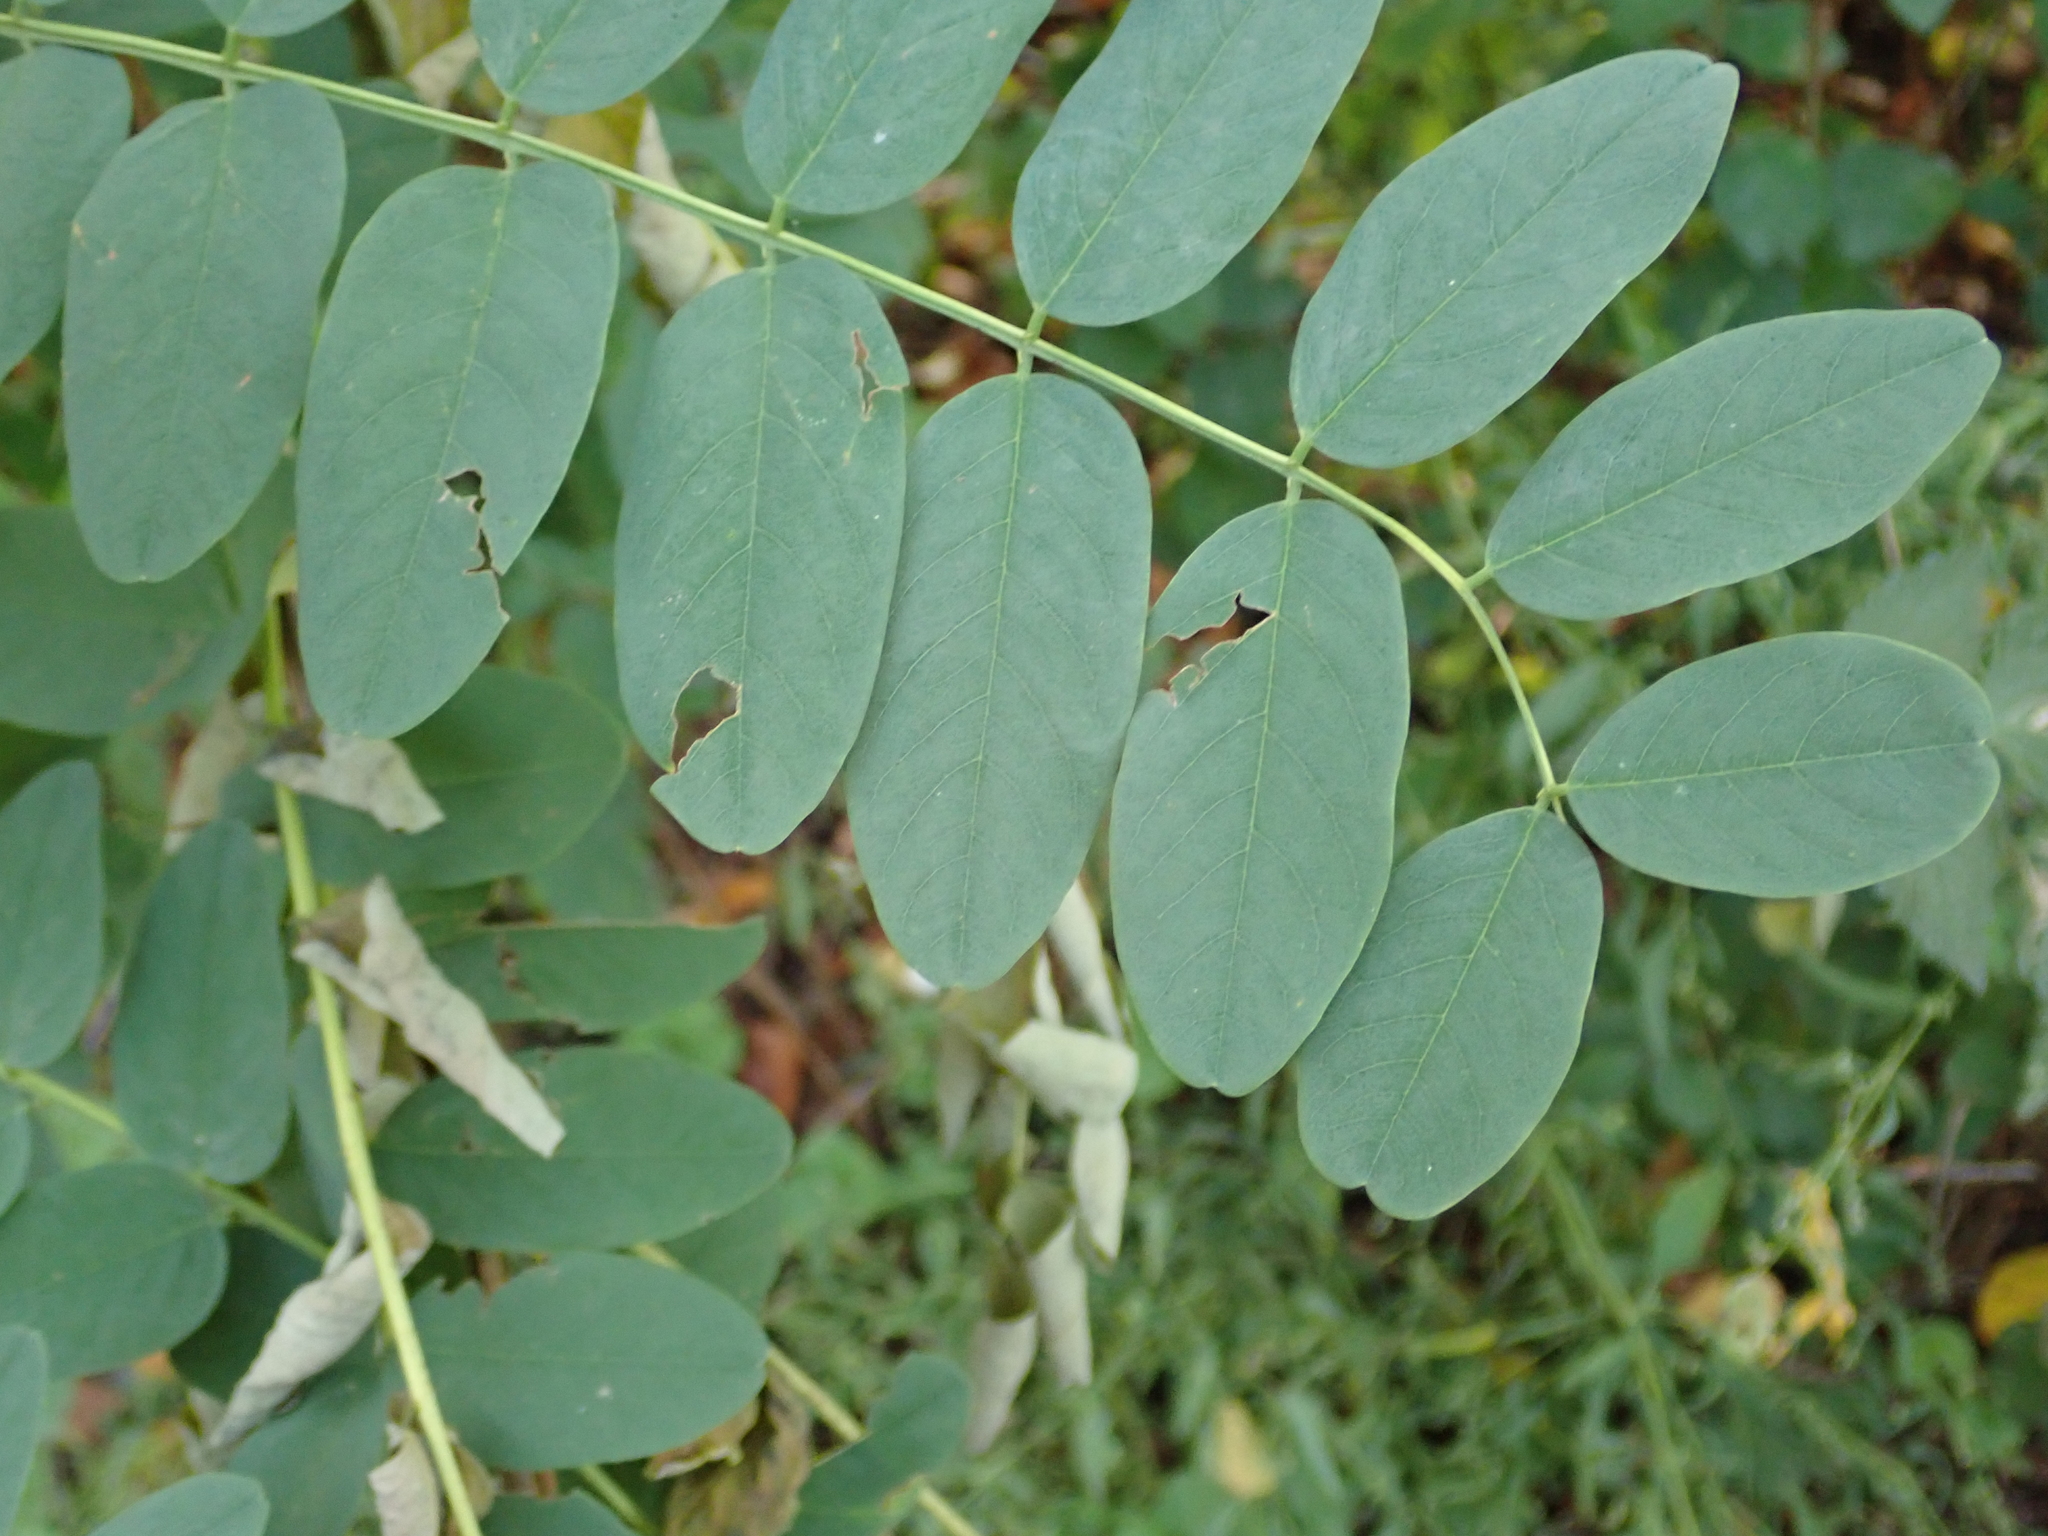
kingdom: Plantae
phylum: Tracheophyta
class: Magnoliopsida
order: Fabales
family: Fabaceae
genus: Robinia
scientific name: Robinia pseudoacacia
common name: Black locust
